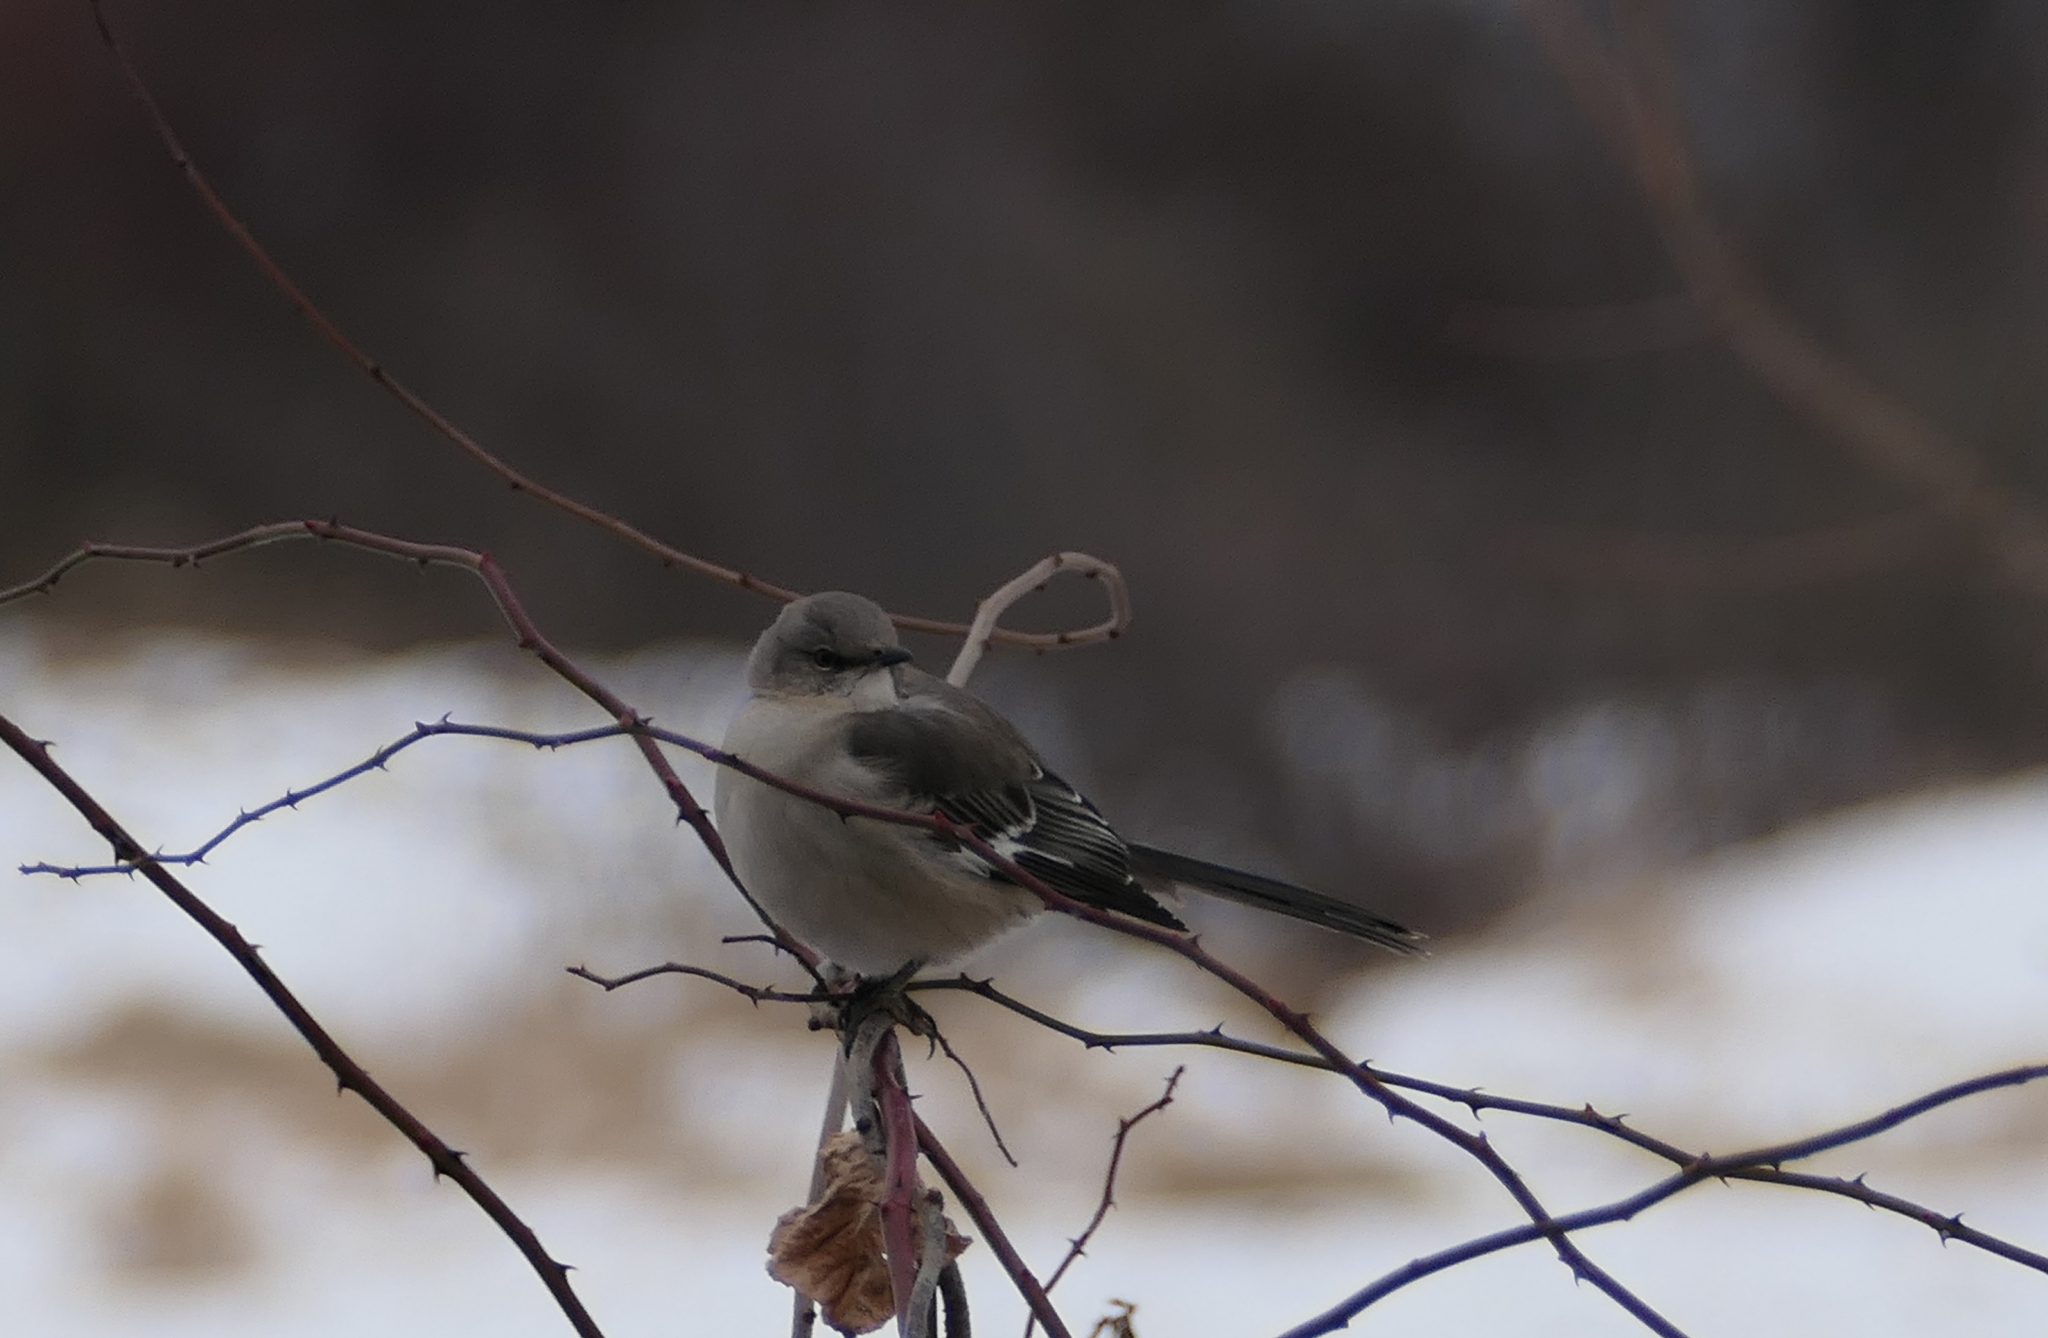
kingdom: Animalia
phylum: Chordata
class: Aves
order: Passeriformes
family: Mimidae
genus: Mimus
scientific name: Mimus polyglottos
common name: Northern mockingbird
